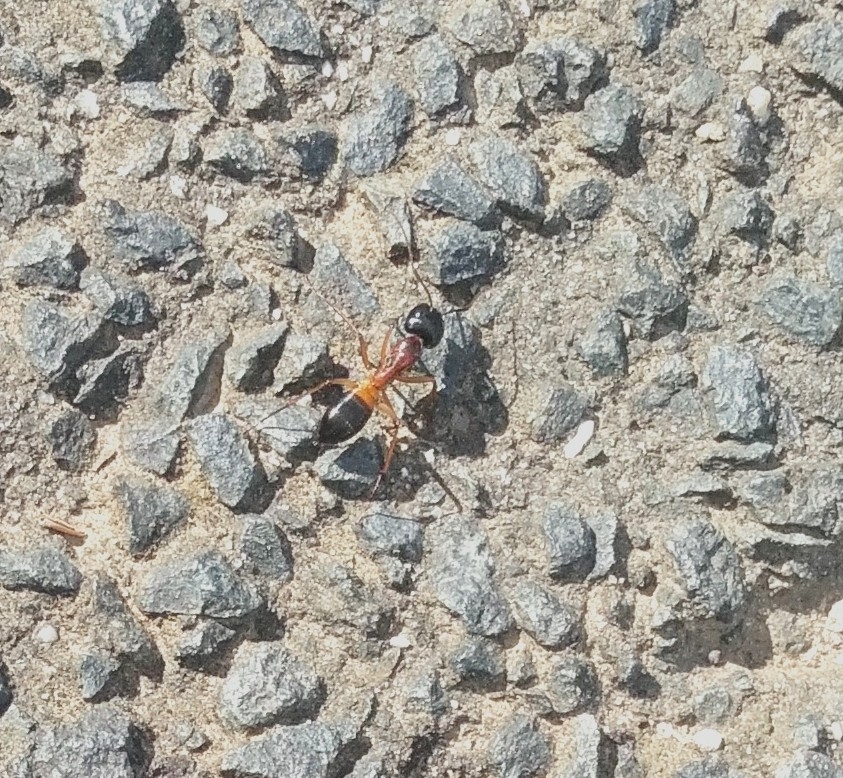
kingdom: Animalia
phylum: Arthropoda
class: Insecta
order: Hymenoptera
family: Formicidae
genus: Camponotus
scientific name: Camponotus consobrinus
